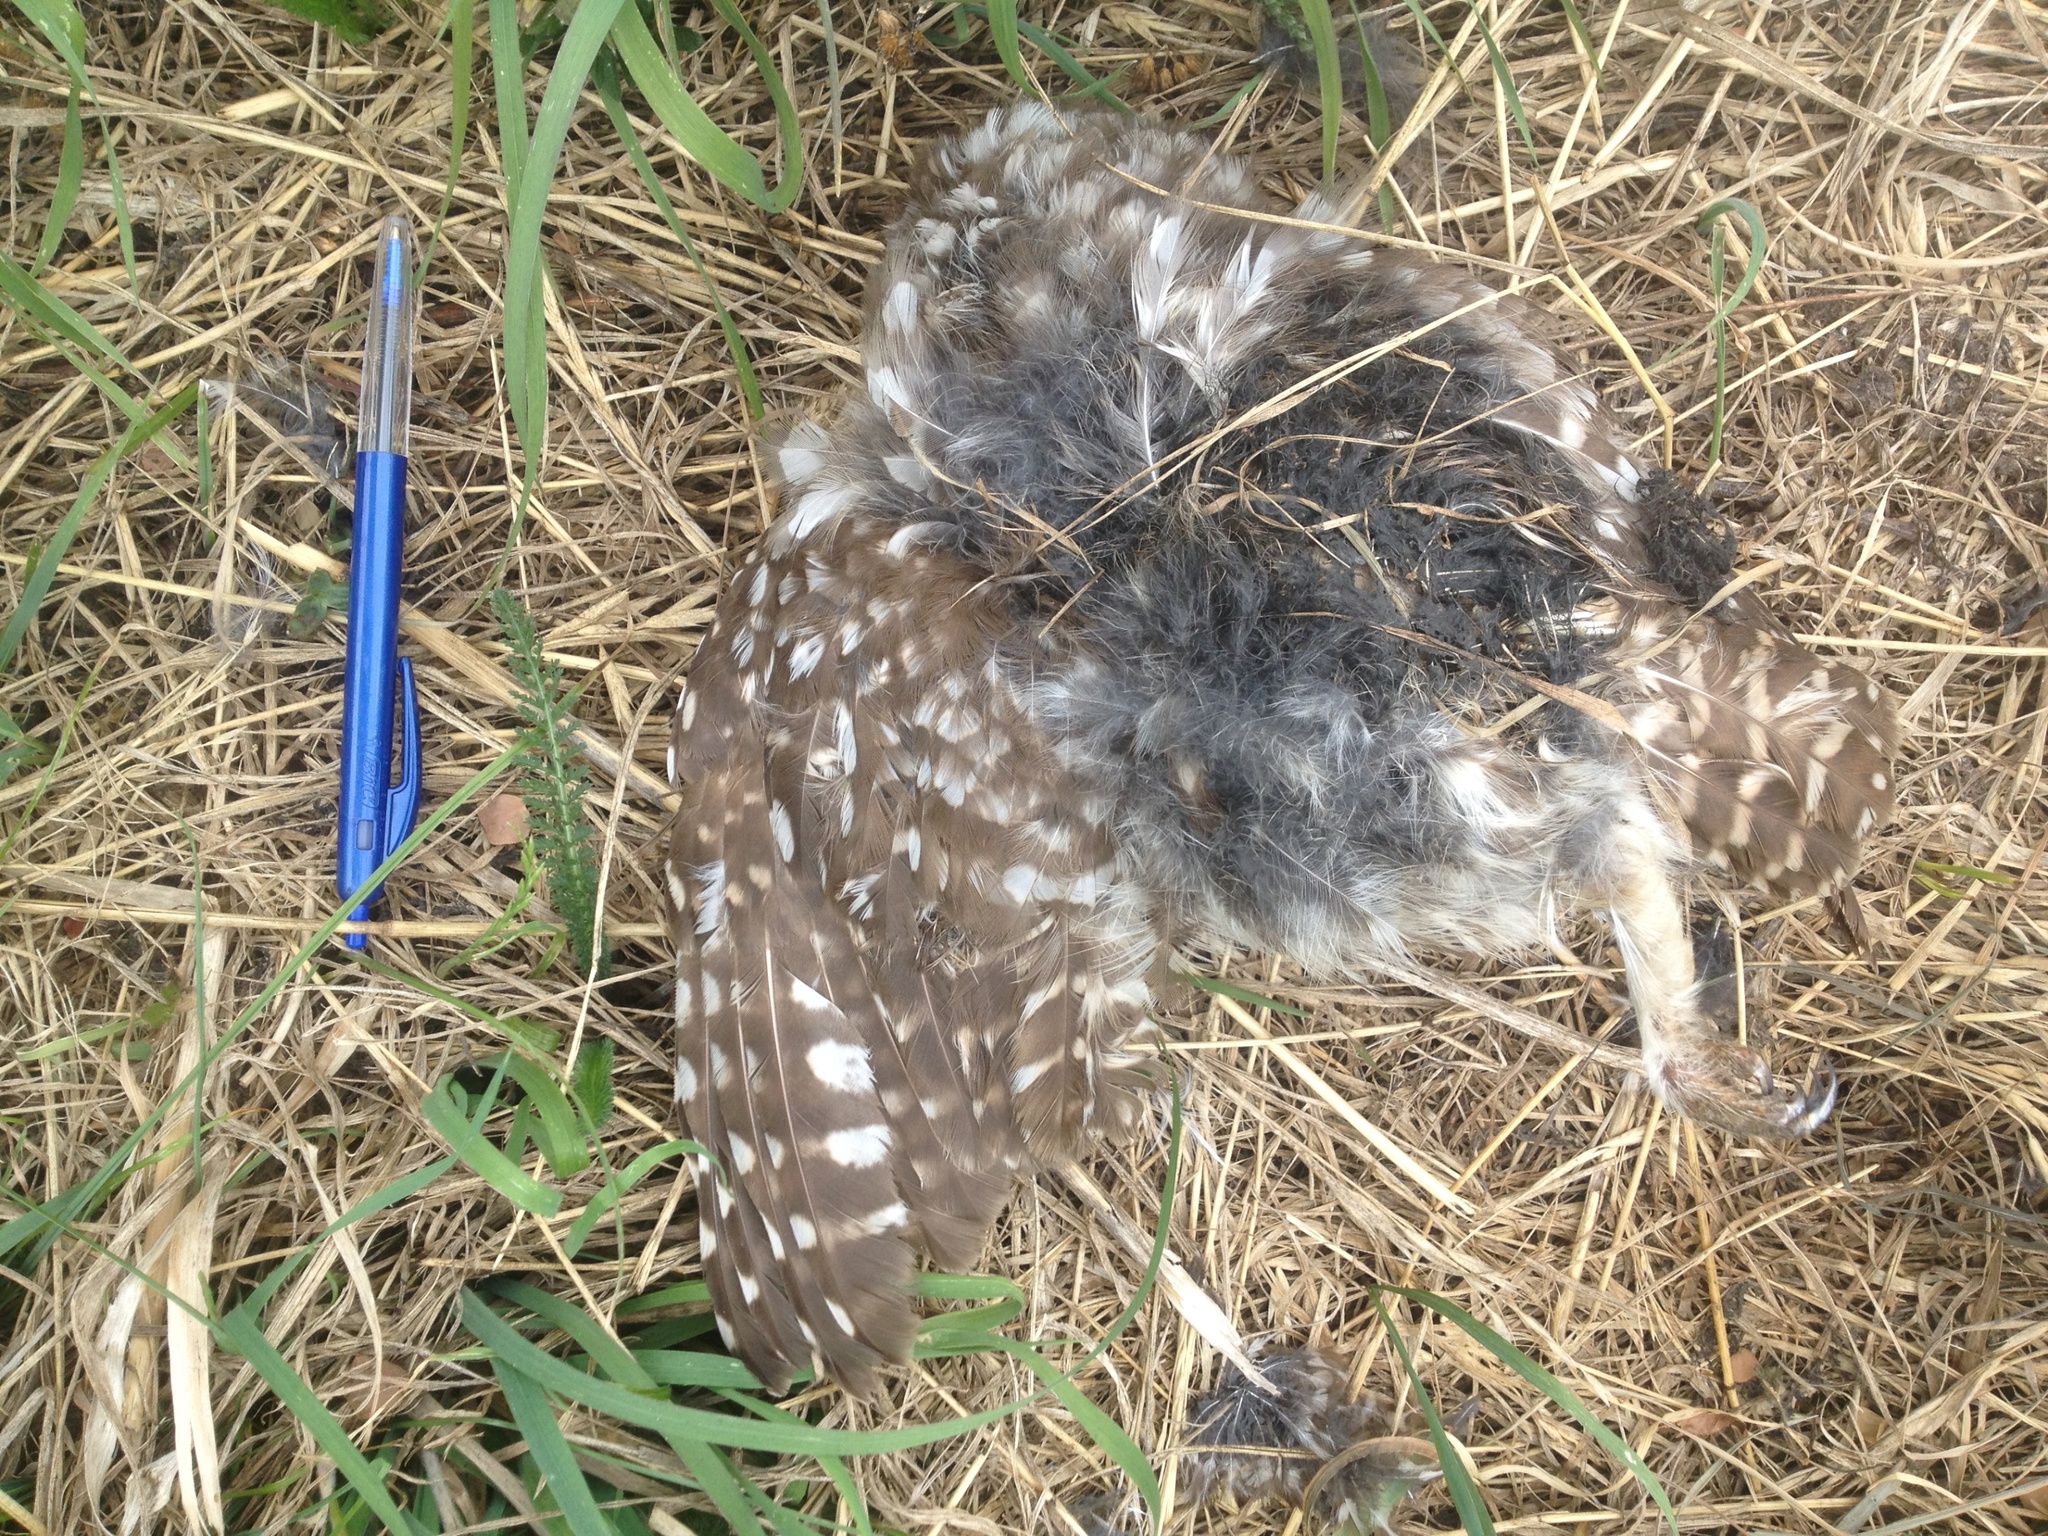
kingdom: Animalia
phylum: Chordata
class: Aves
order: Strigiformes
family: Strigidae
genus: Athene
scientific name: Athene noctua
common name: Little owl
